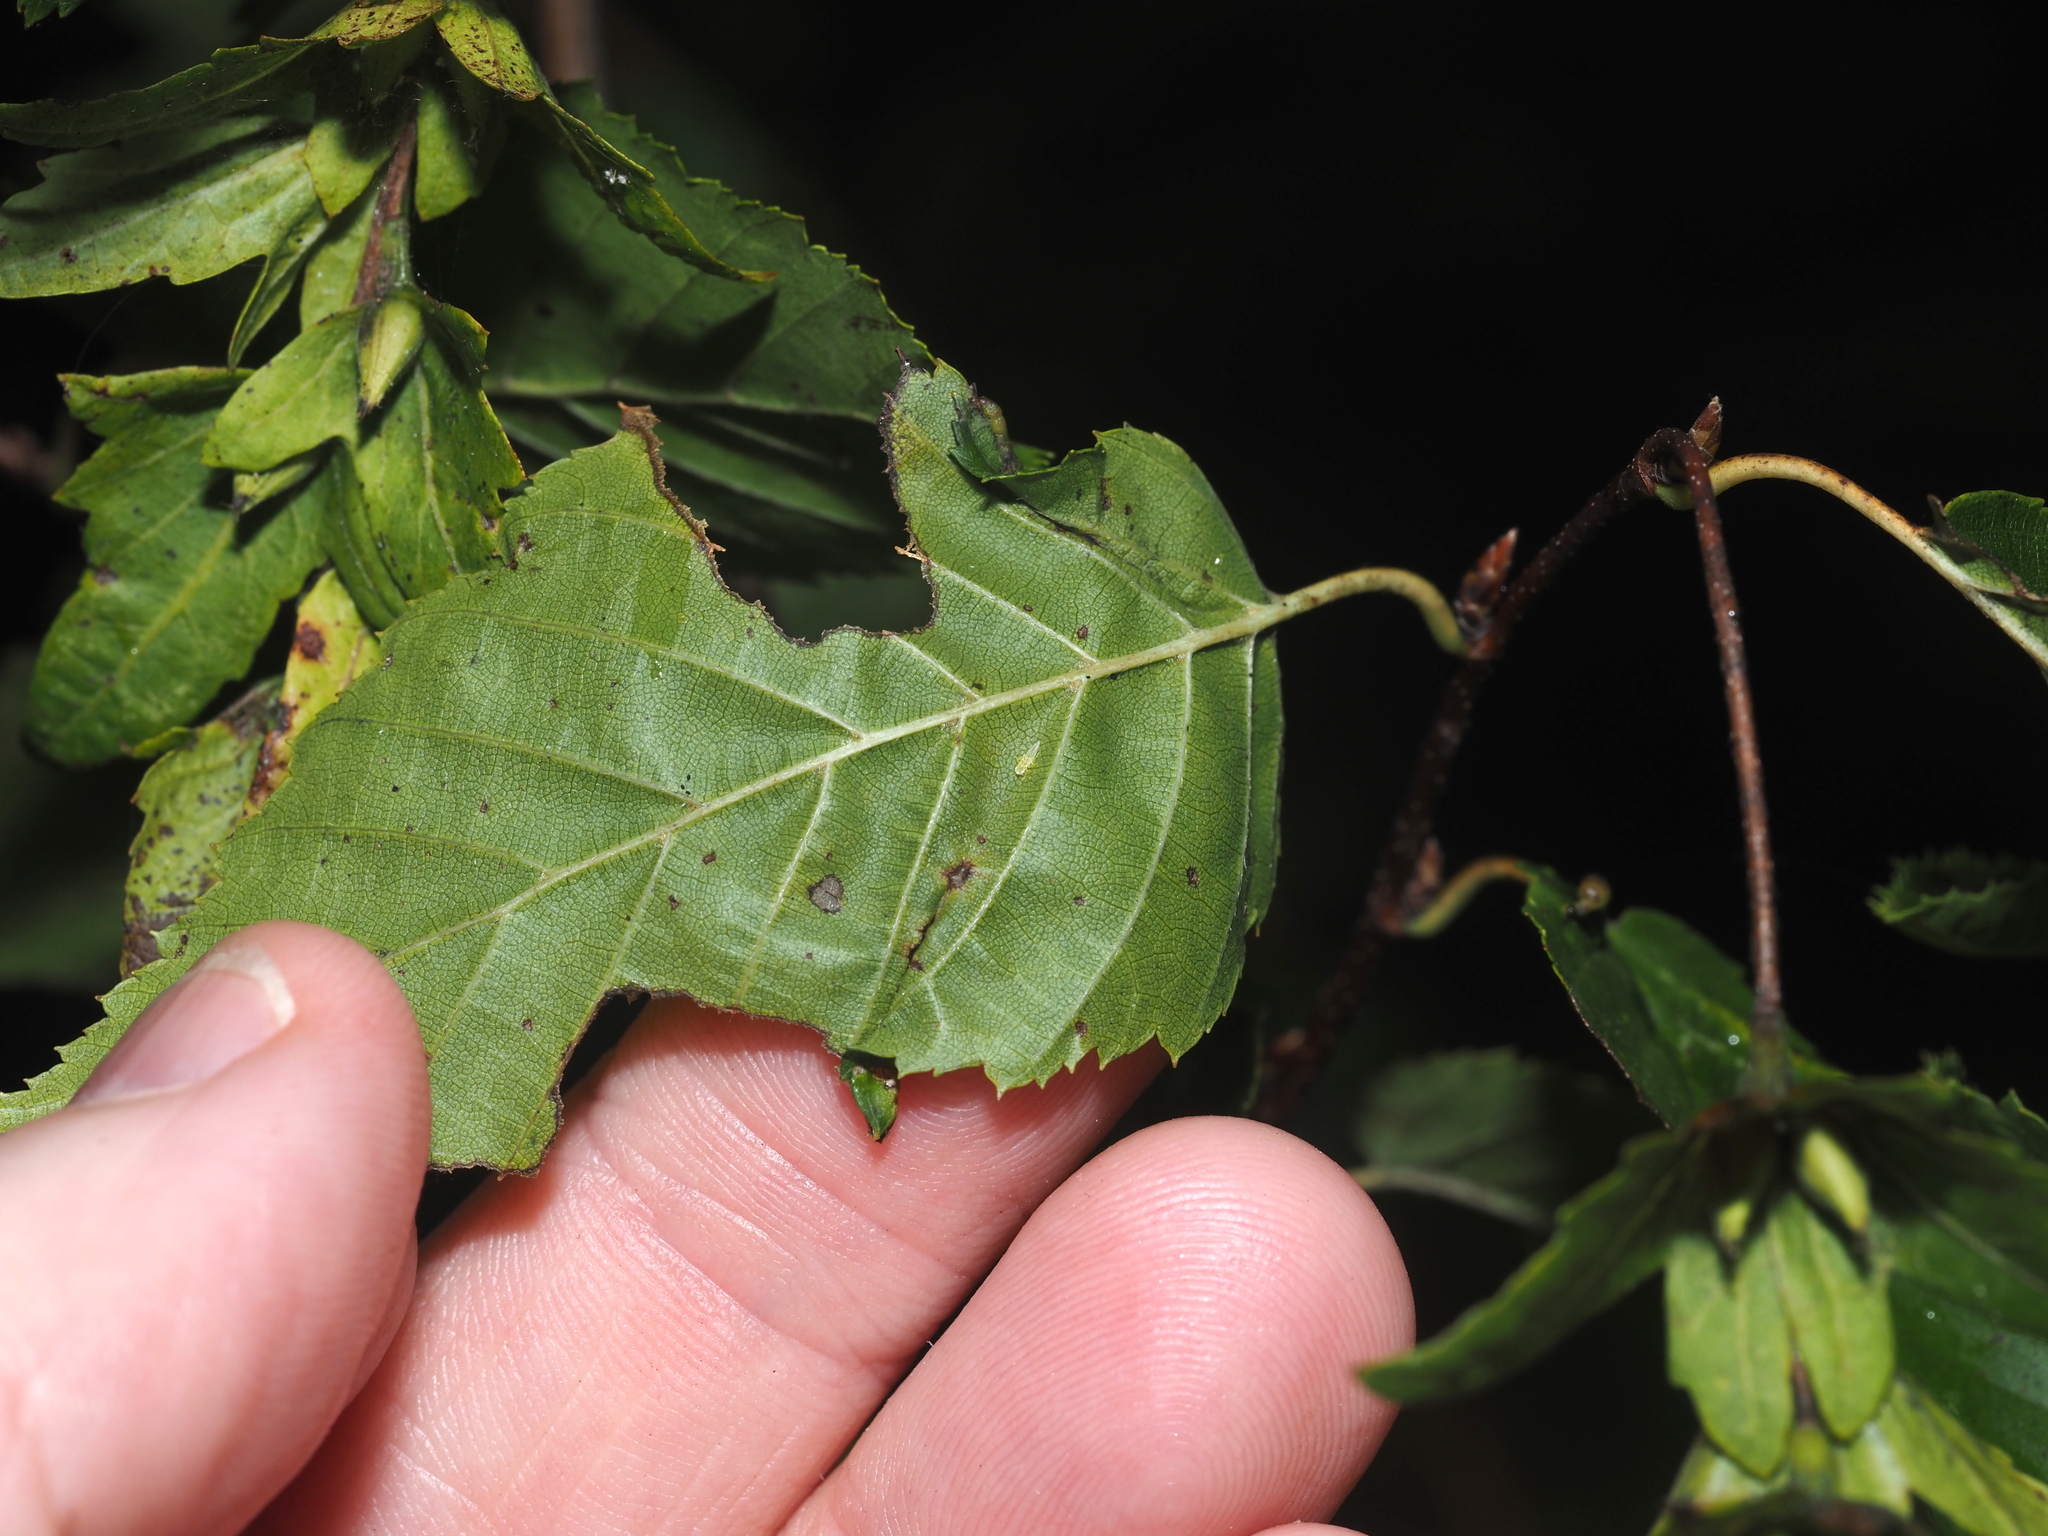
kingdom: Animalia
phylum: Arthropoda
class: Insecta
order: Diptera
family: Cecidomyiidae
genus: Dasineura
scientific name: Dasineura pudibunda
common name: Hornbeam leaf gall midge
